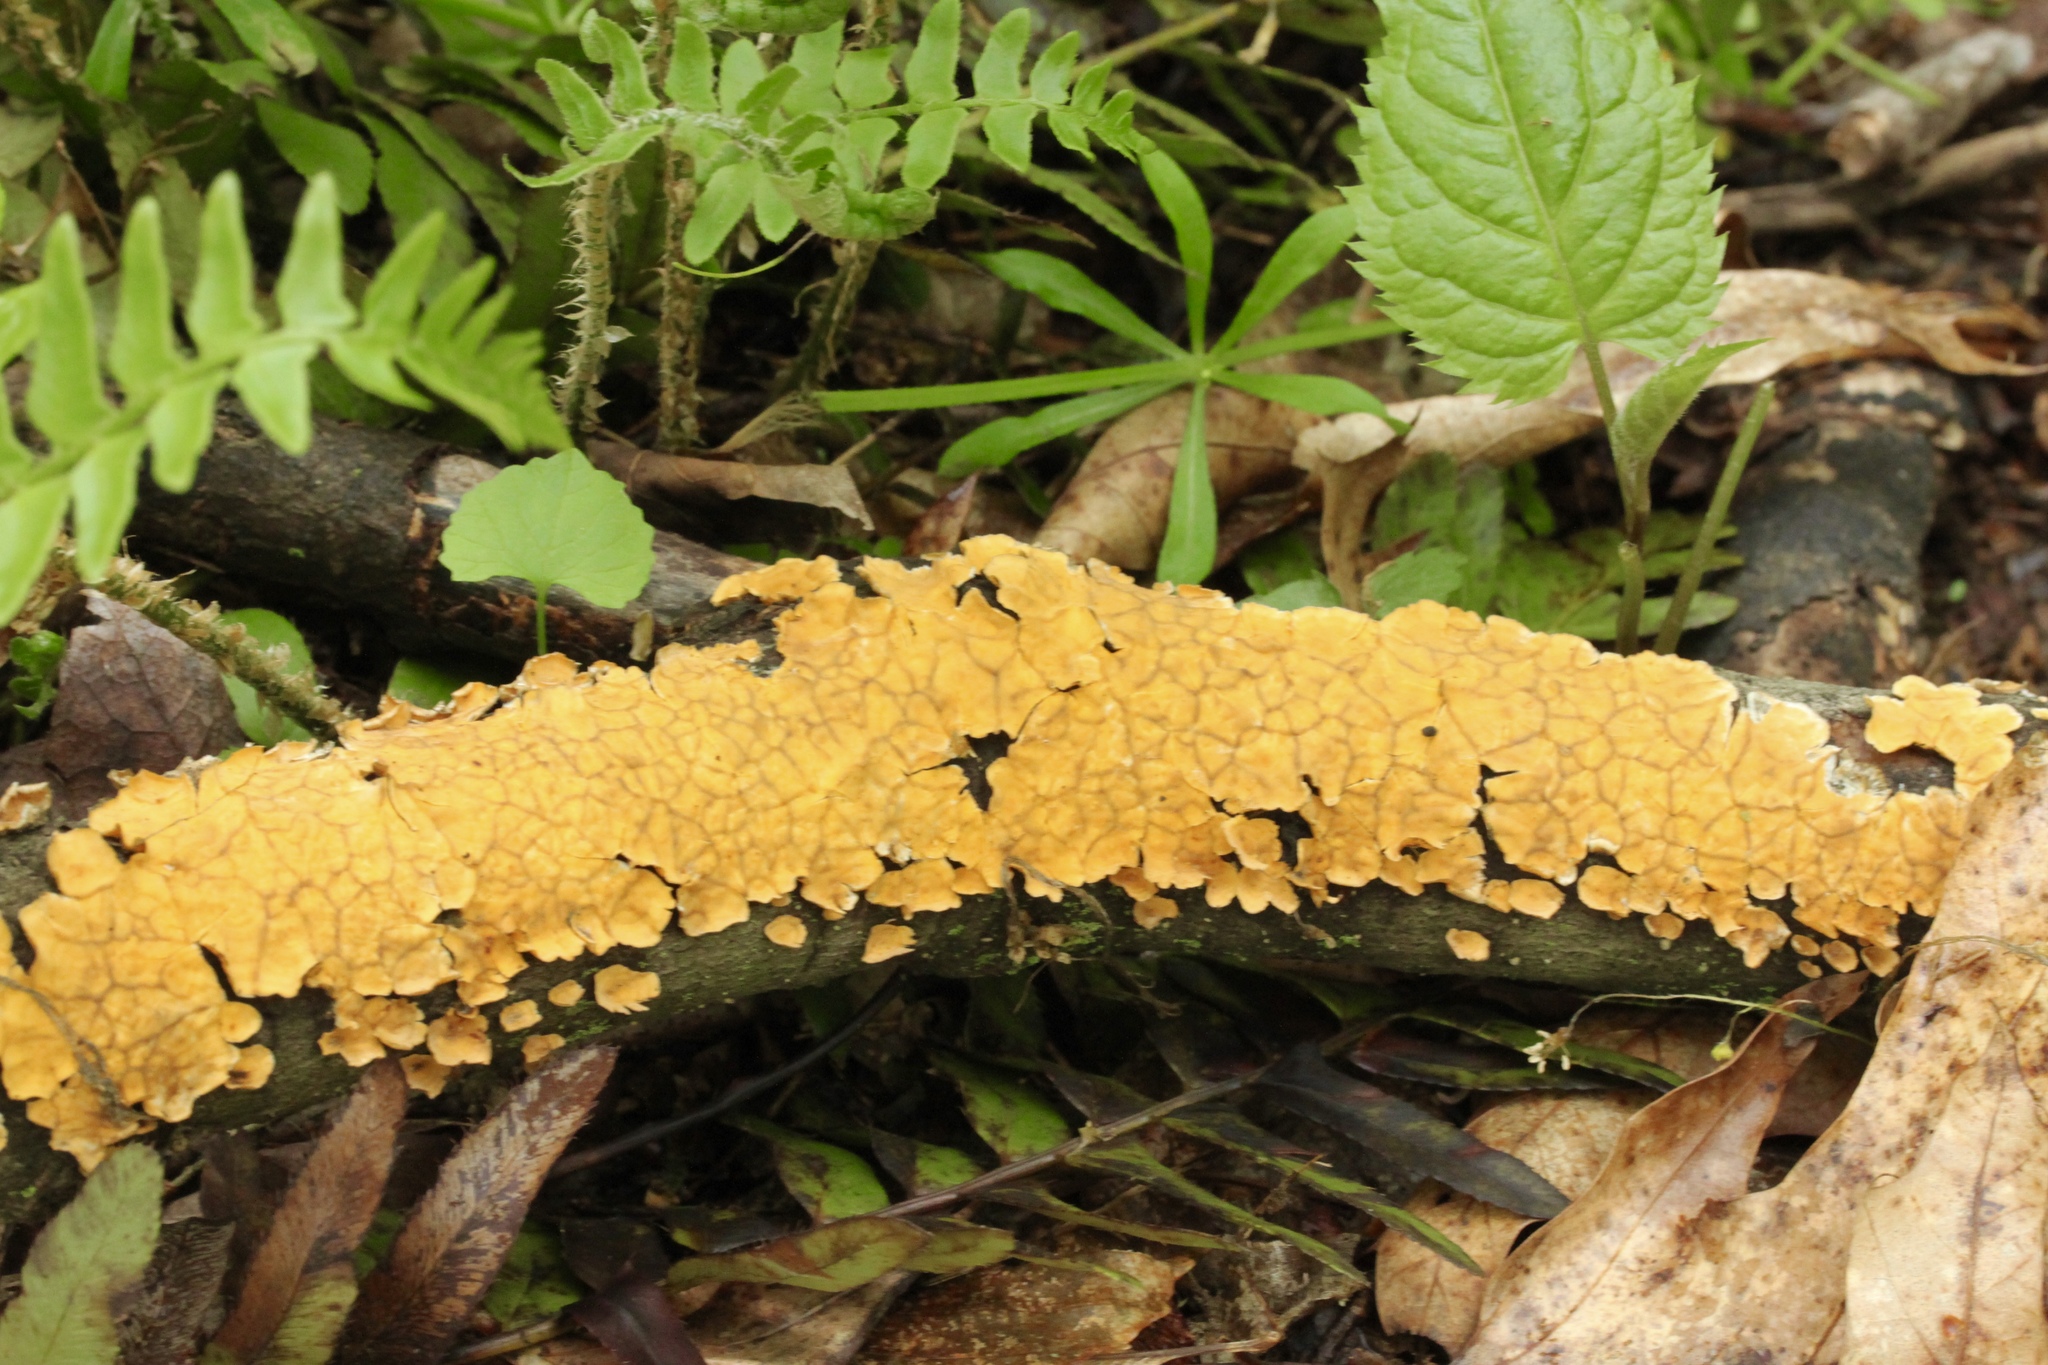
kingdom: Fungi
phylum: Basidiomycota
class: Agaricomycetes
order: Russulales
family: Stereaceae
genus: Stereum
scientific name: Stereum complicatum
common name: Crowded parchment
